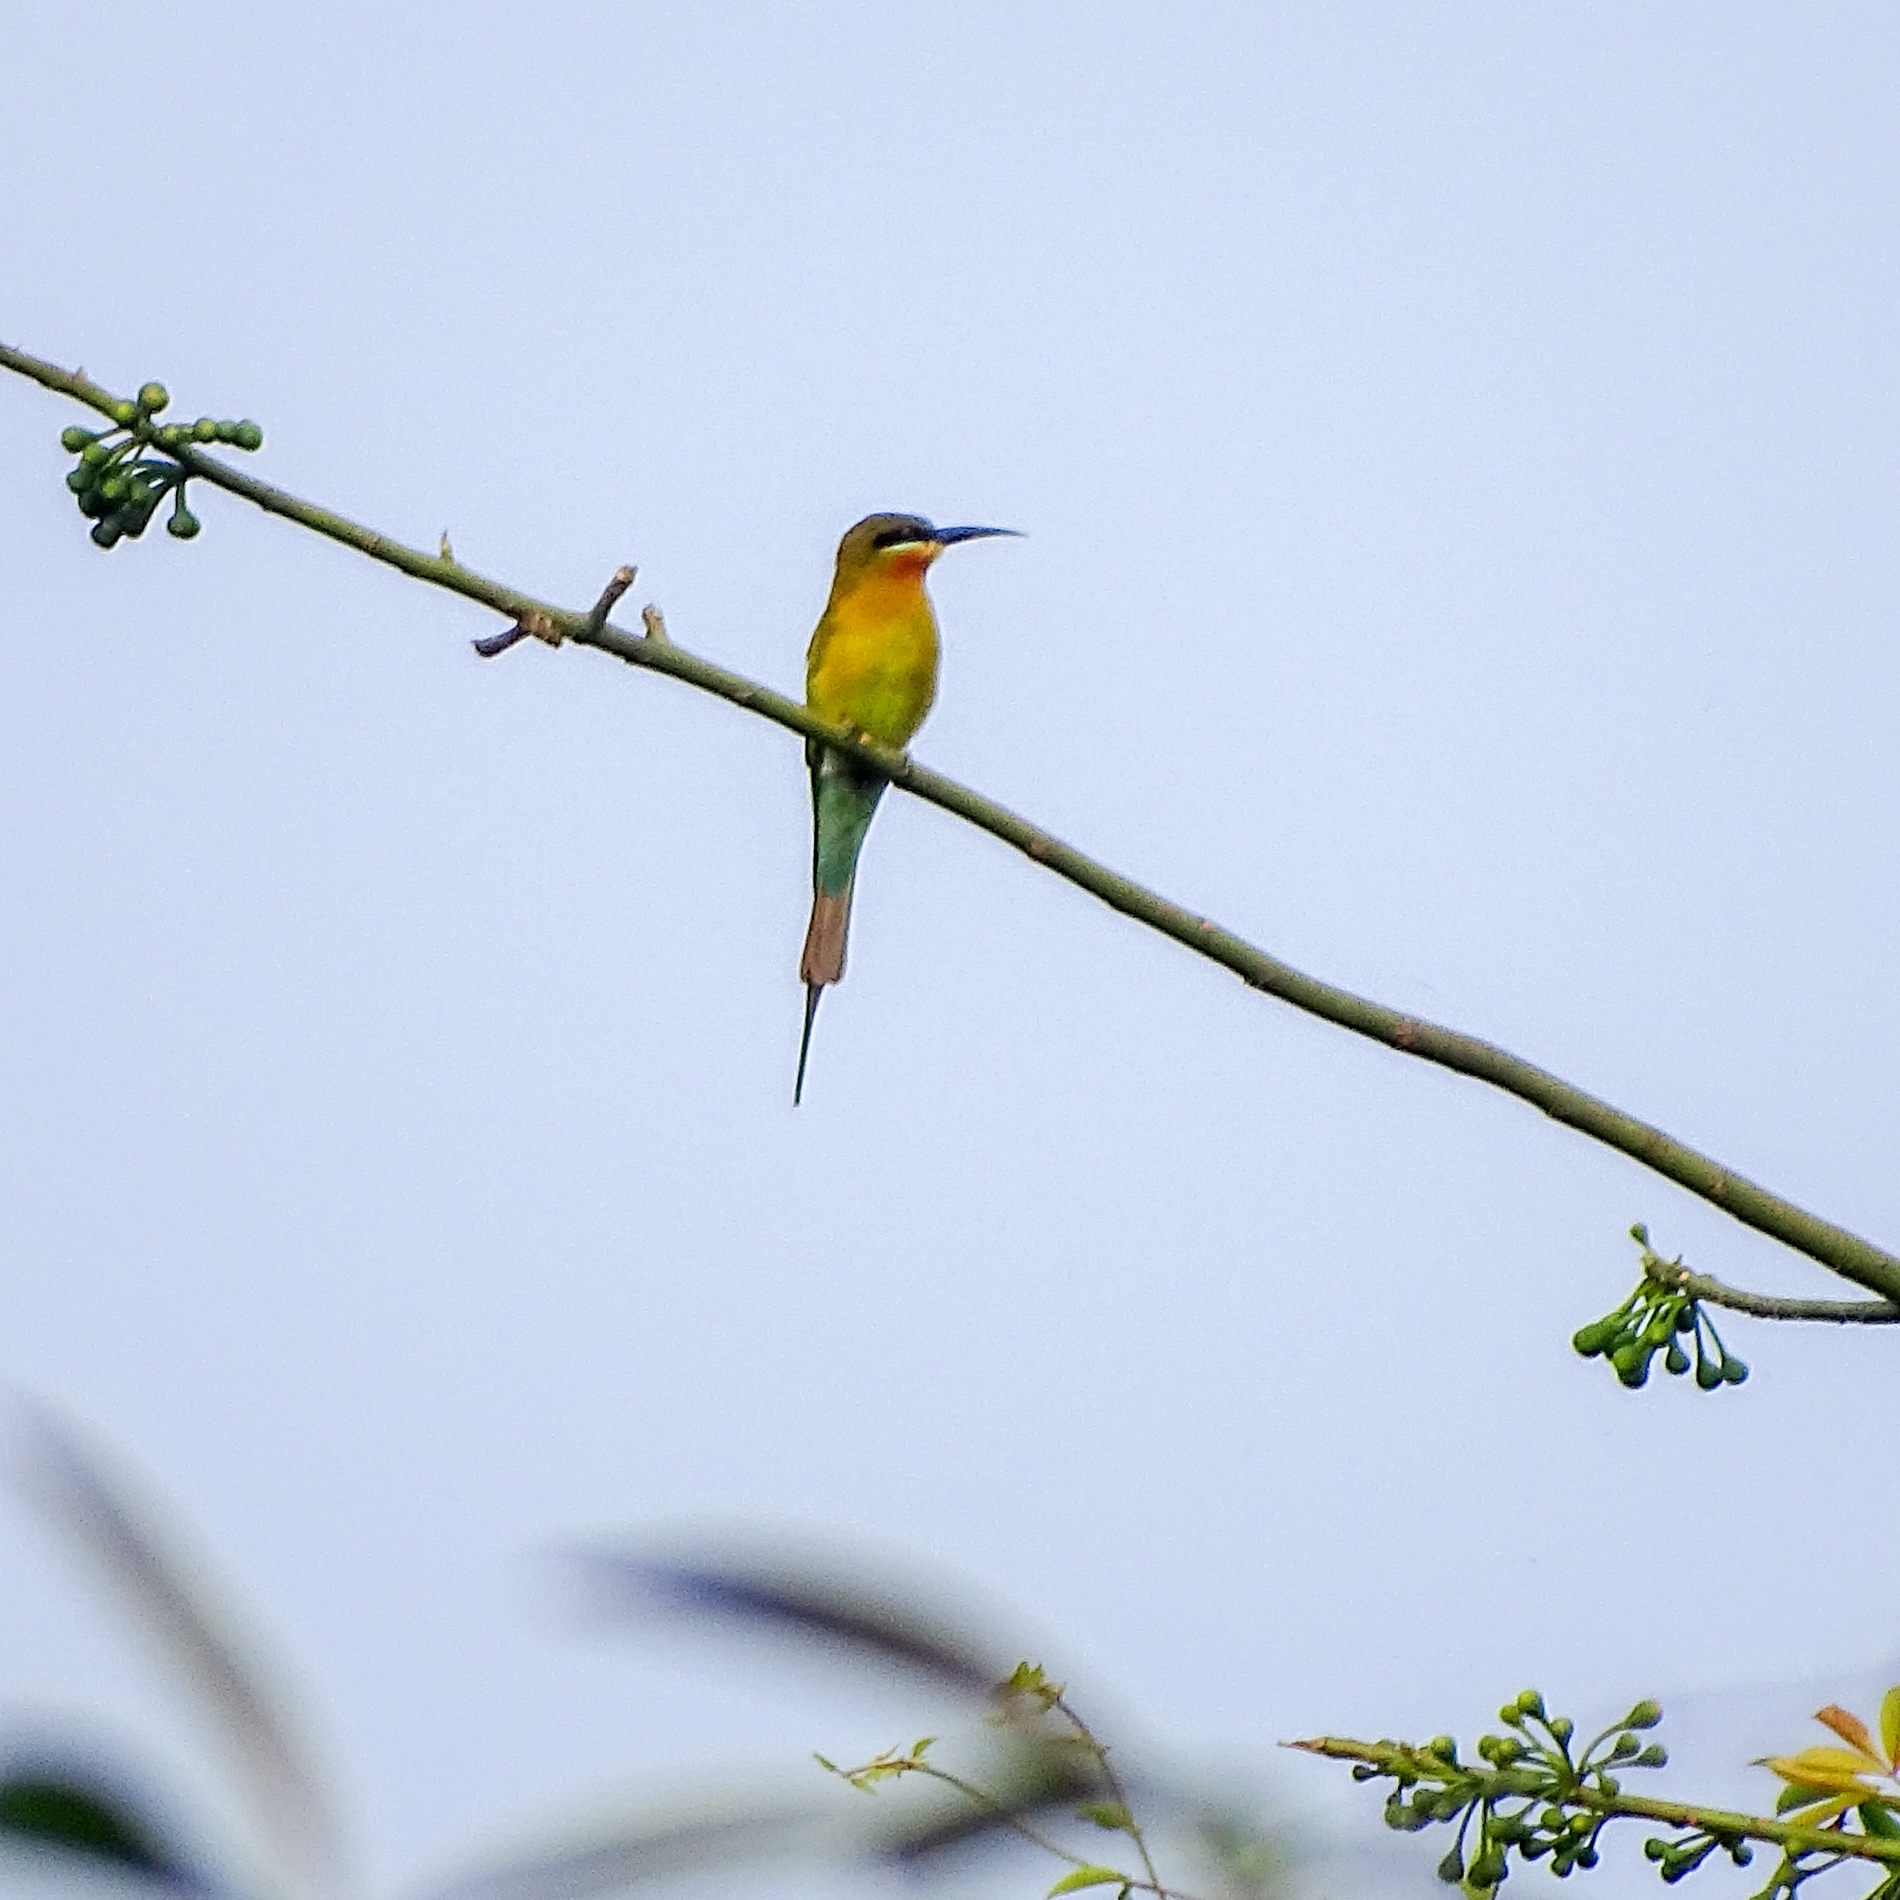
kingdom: Animalia
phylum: Chordata
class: Aves
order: Coraciiformes
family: Meropidae
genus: Merops
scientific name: Merops philippinus
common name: Blue-tailed bee-eater
